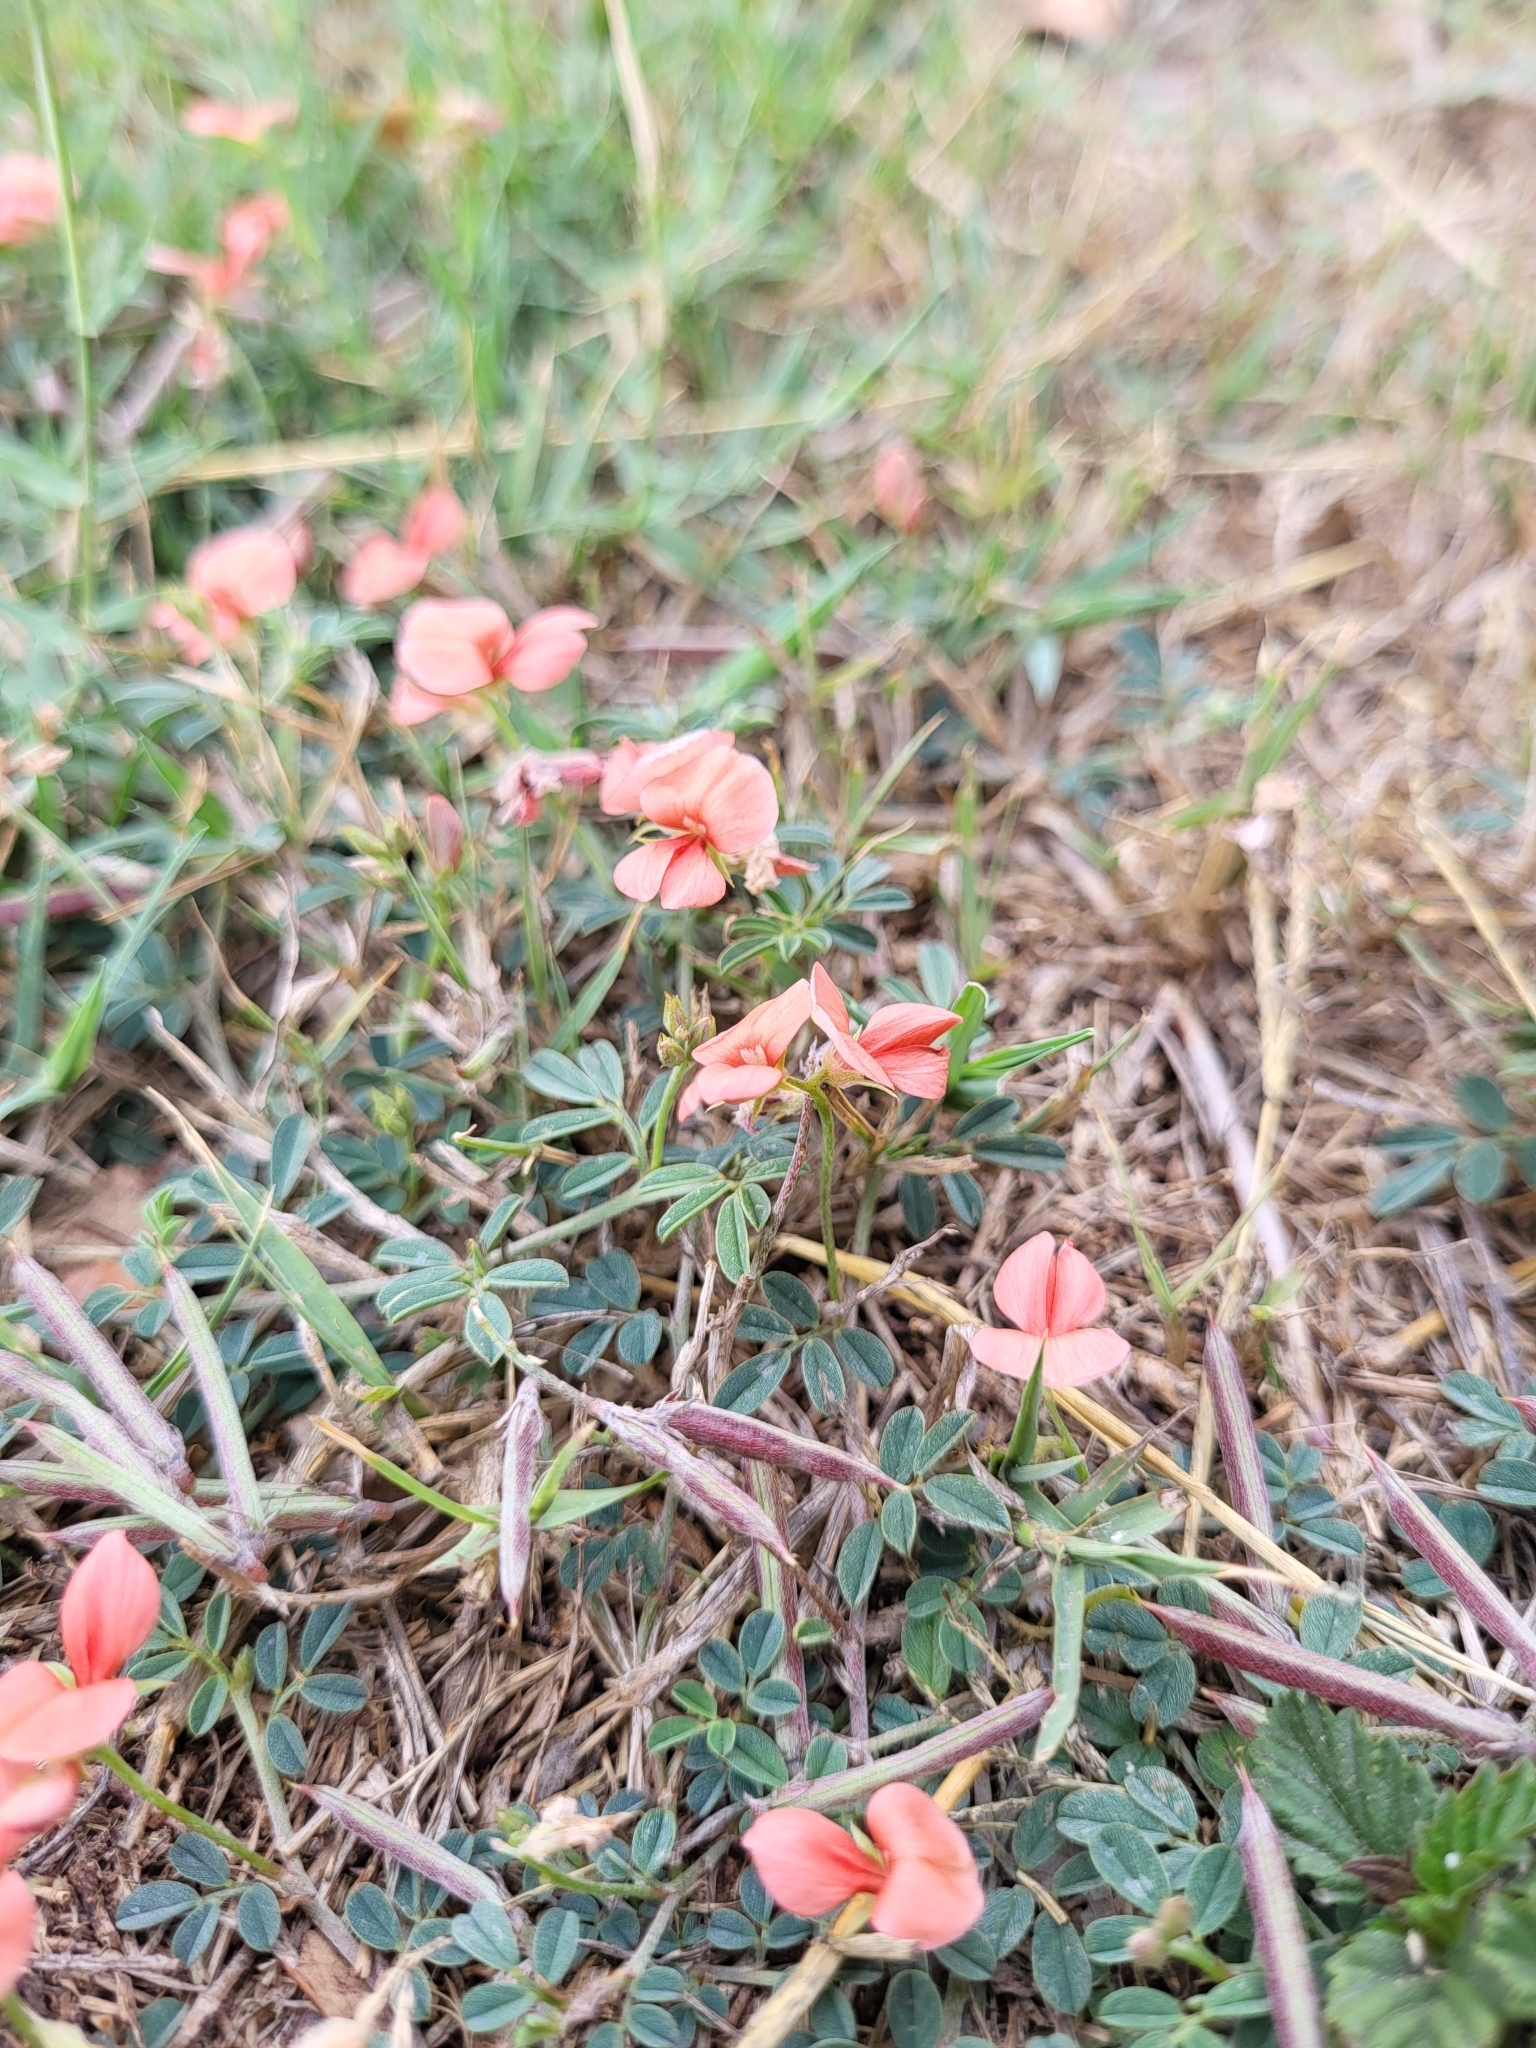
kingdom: Plantae
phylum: Tracheophyta
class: Magnoliopsida
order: Fabales
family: Fabaceae
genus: Indigofera
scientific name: Indigofera miniata
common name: Coast indigo
